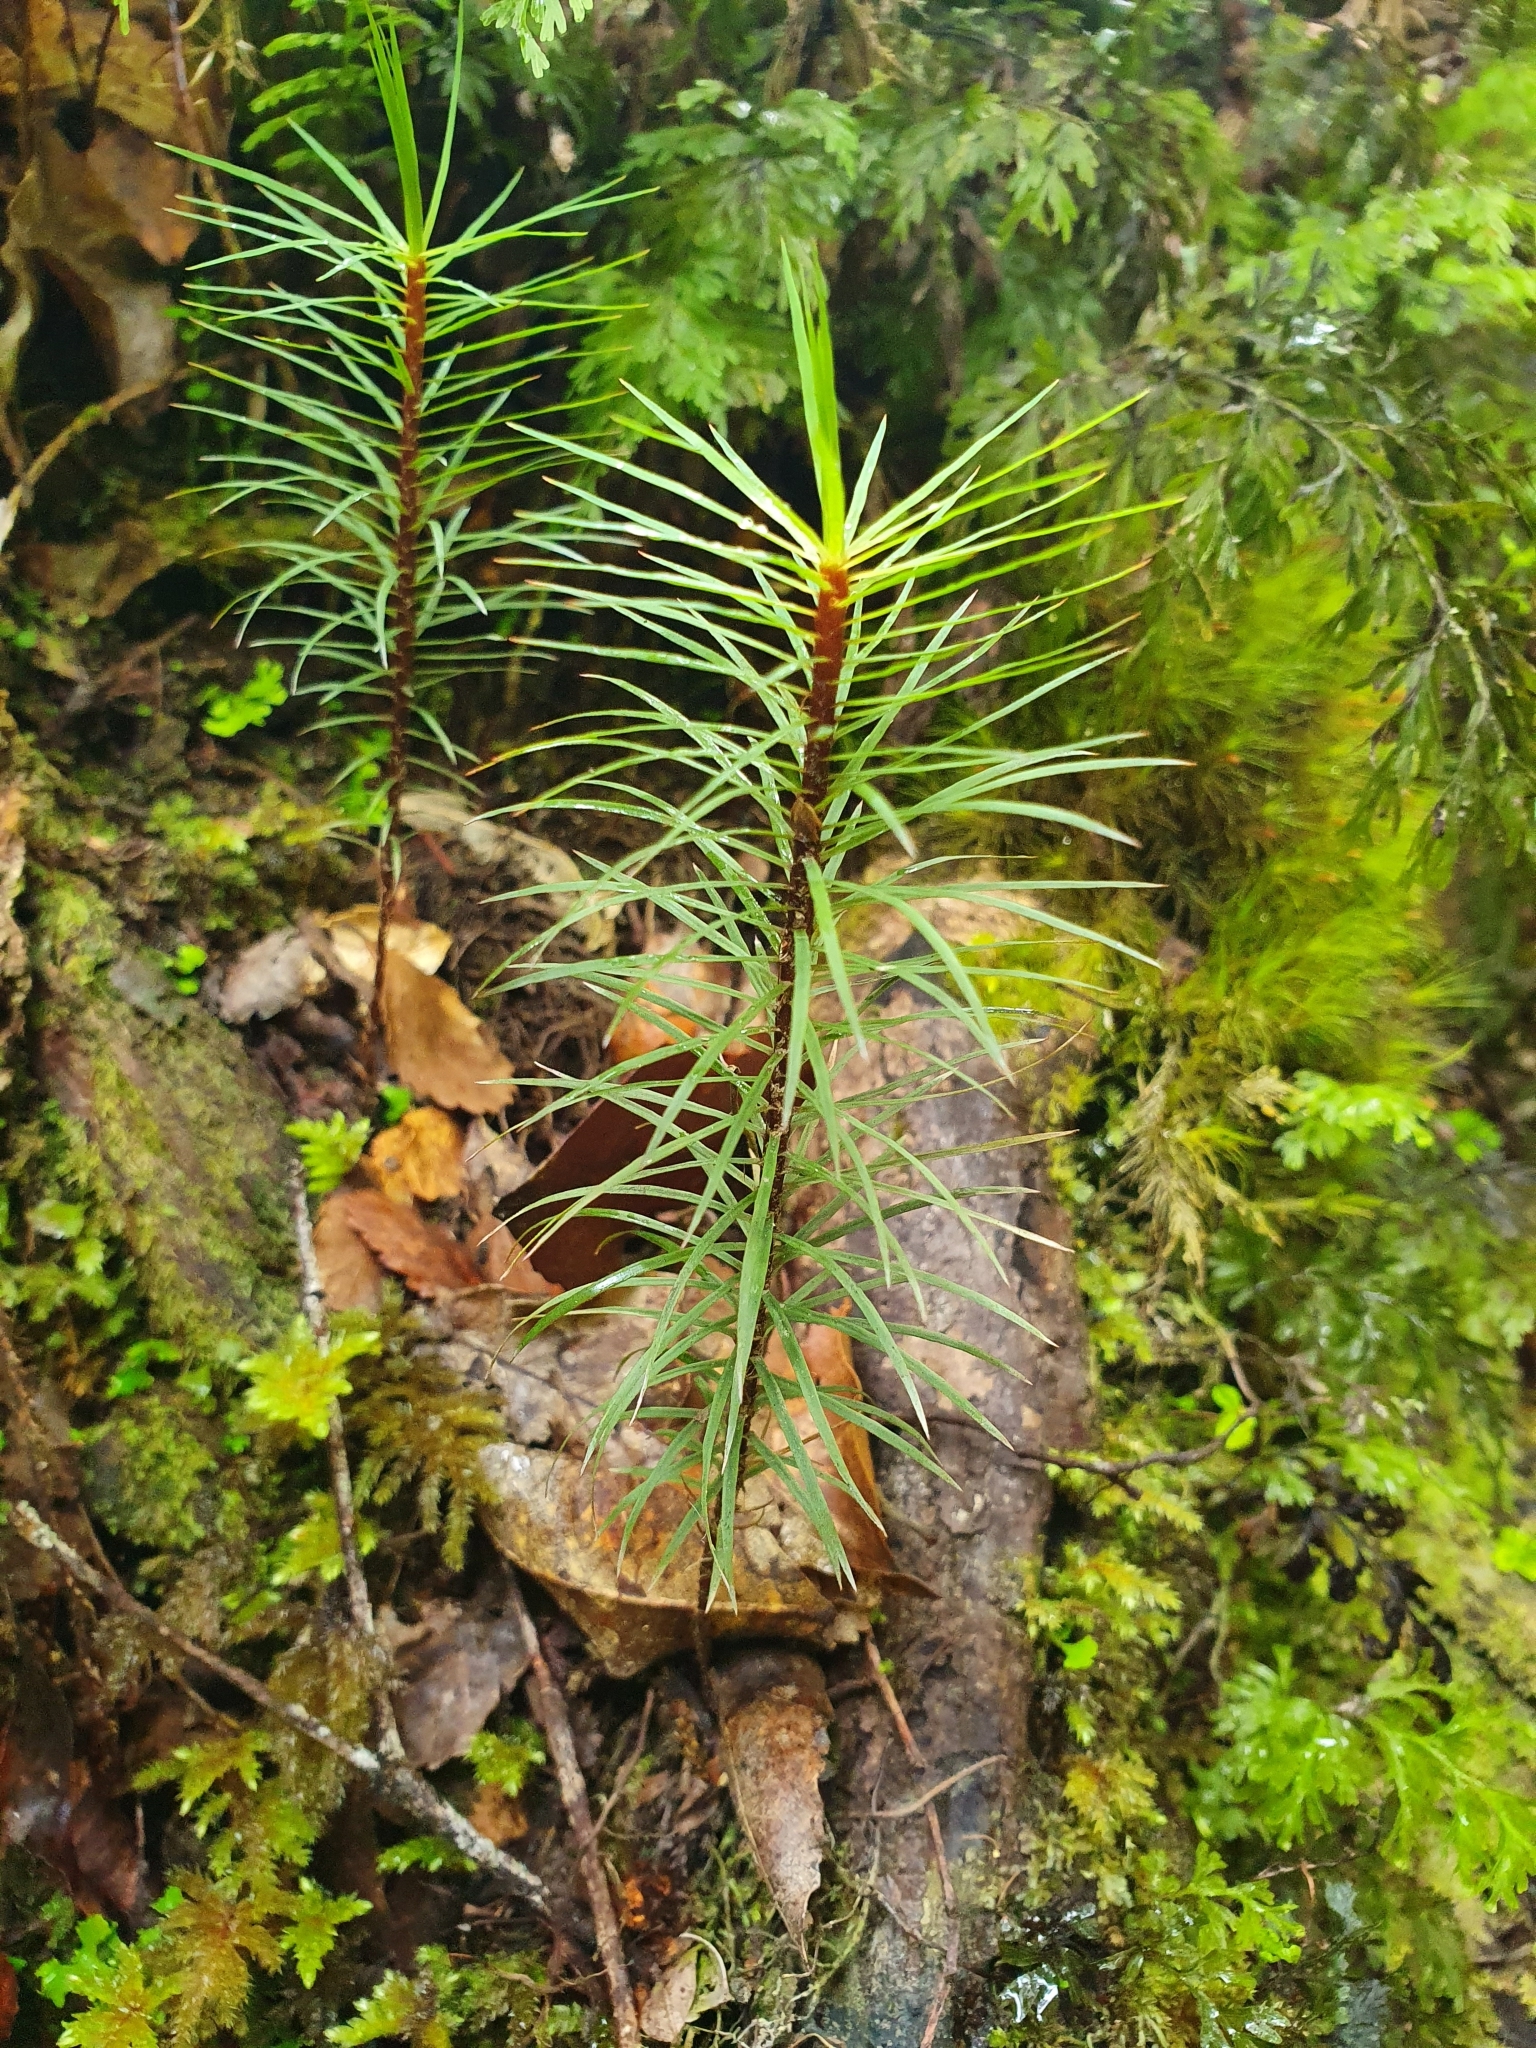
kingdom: Plantae
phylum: Bryophyta
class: Polytrichopsida
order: Polytrichales
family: Polytrichaceae
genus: Dawsonia
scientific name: Dawsonia superba
